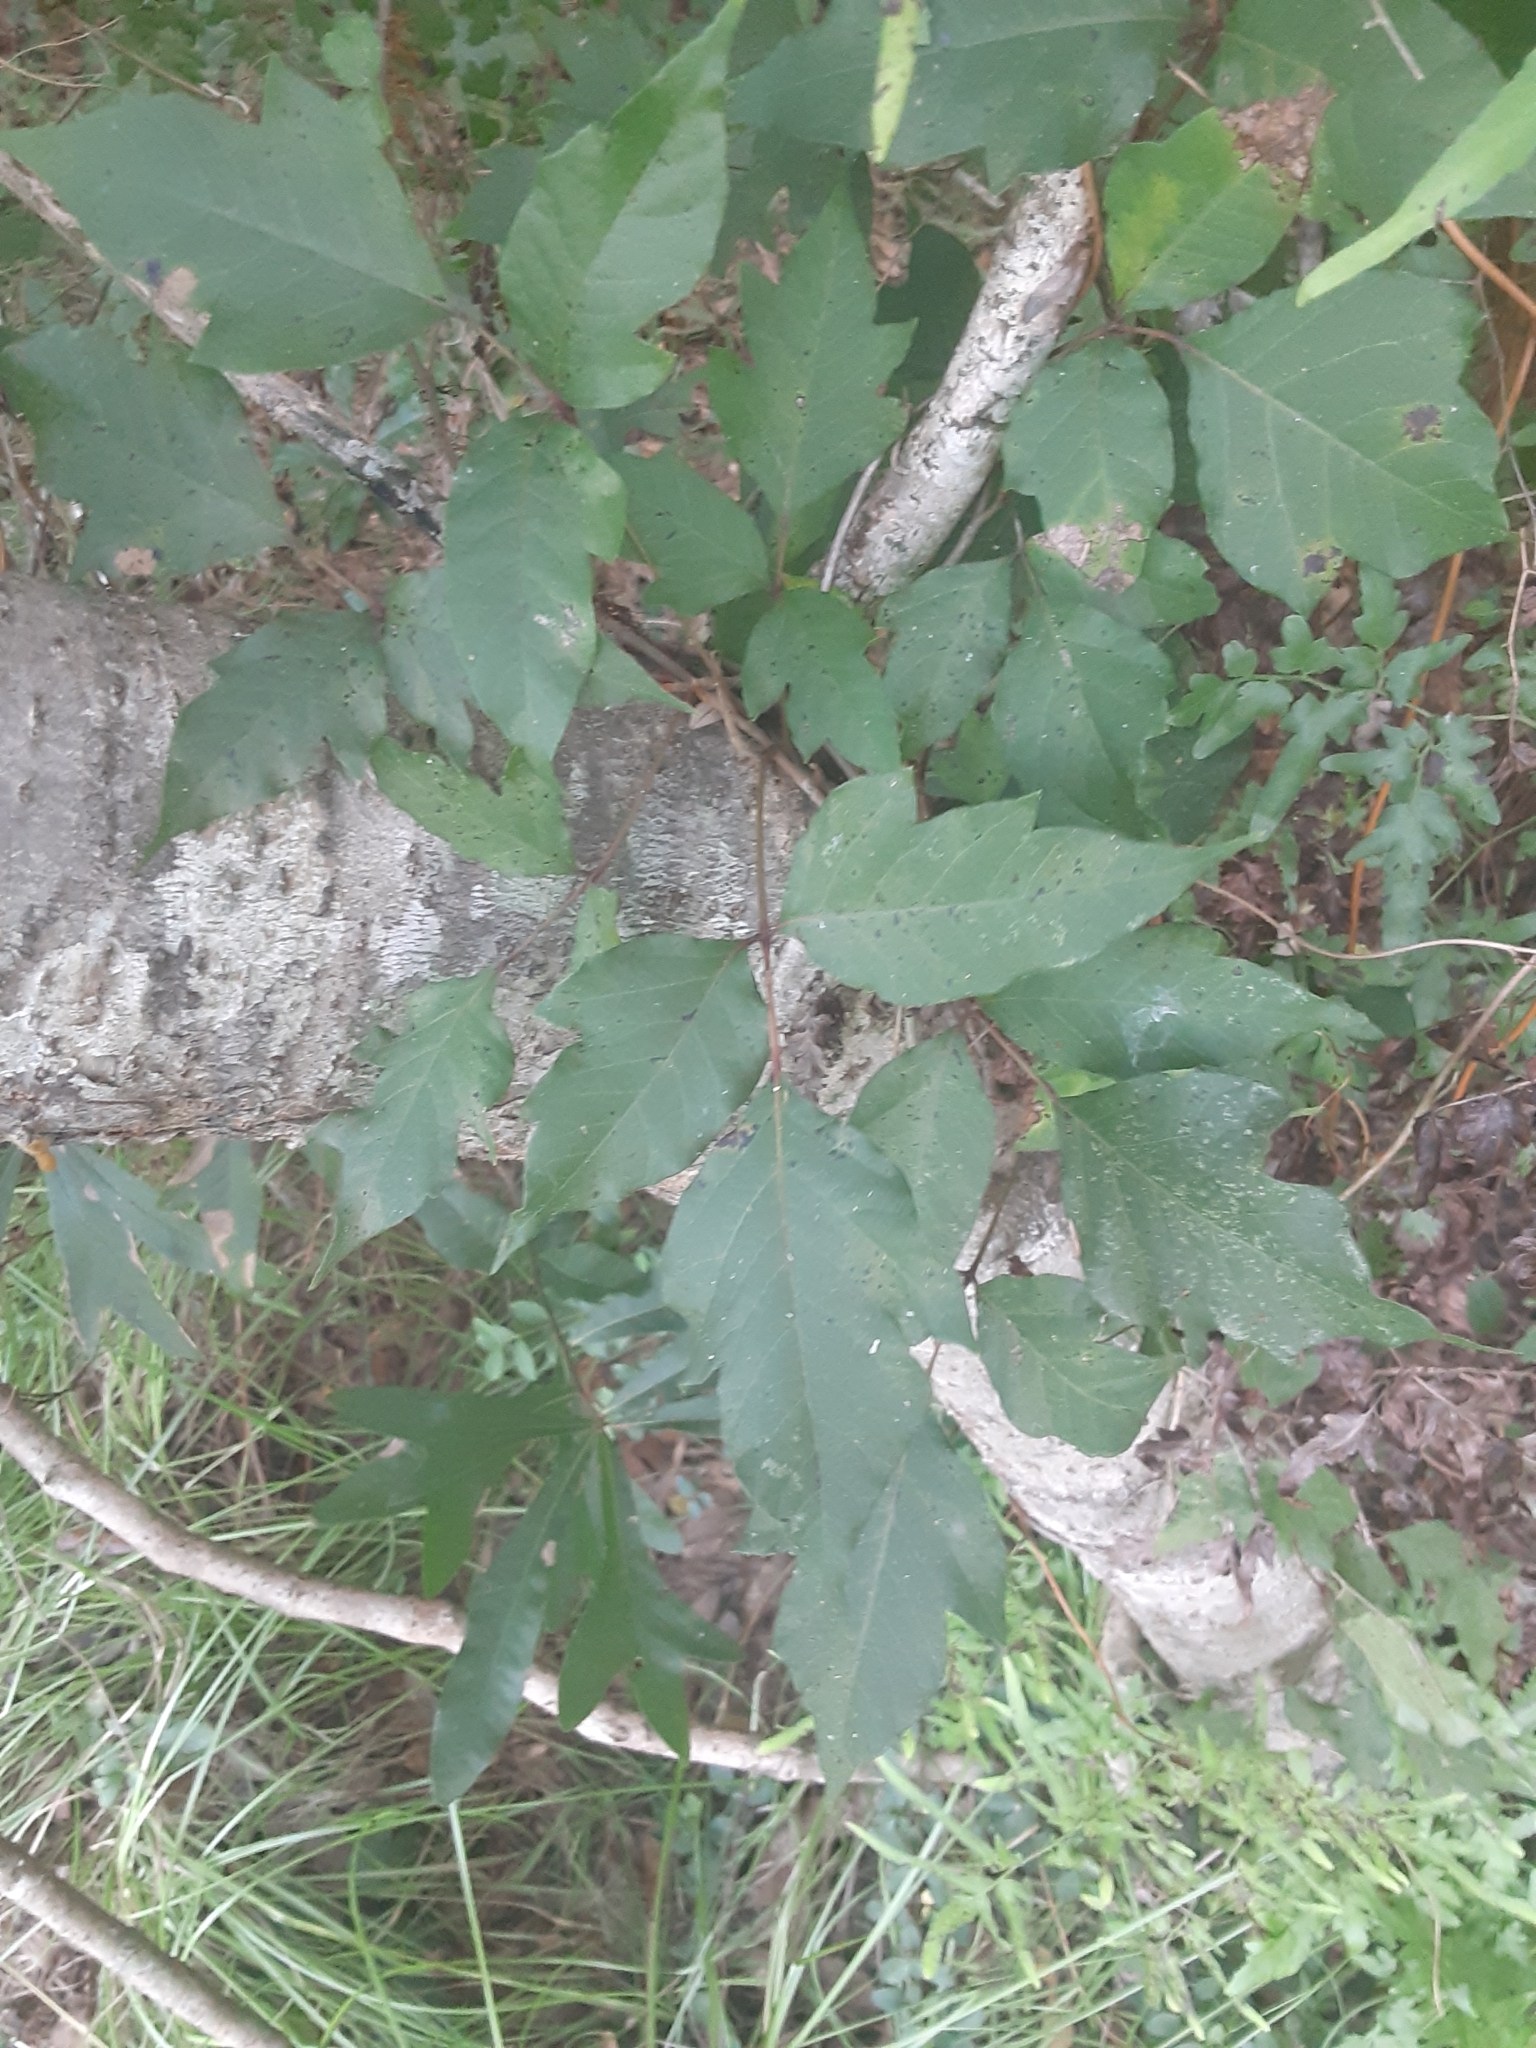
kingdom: Plantae
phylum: Tracheophyta
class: Magnoliopsida
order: Sapindales
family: Anacardiaceae
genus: Toxicodendron
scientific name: Toxicodendron radicans
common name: Poison ivy
